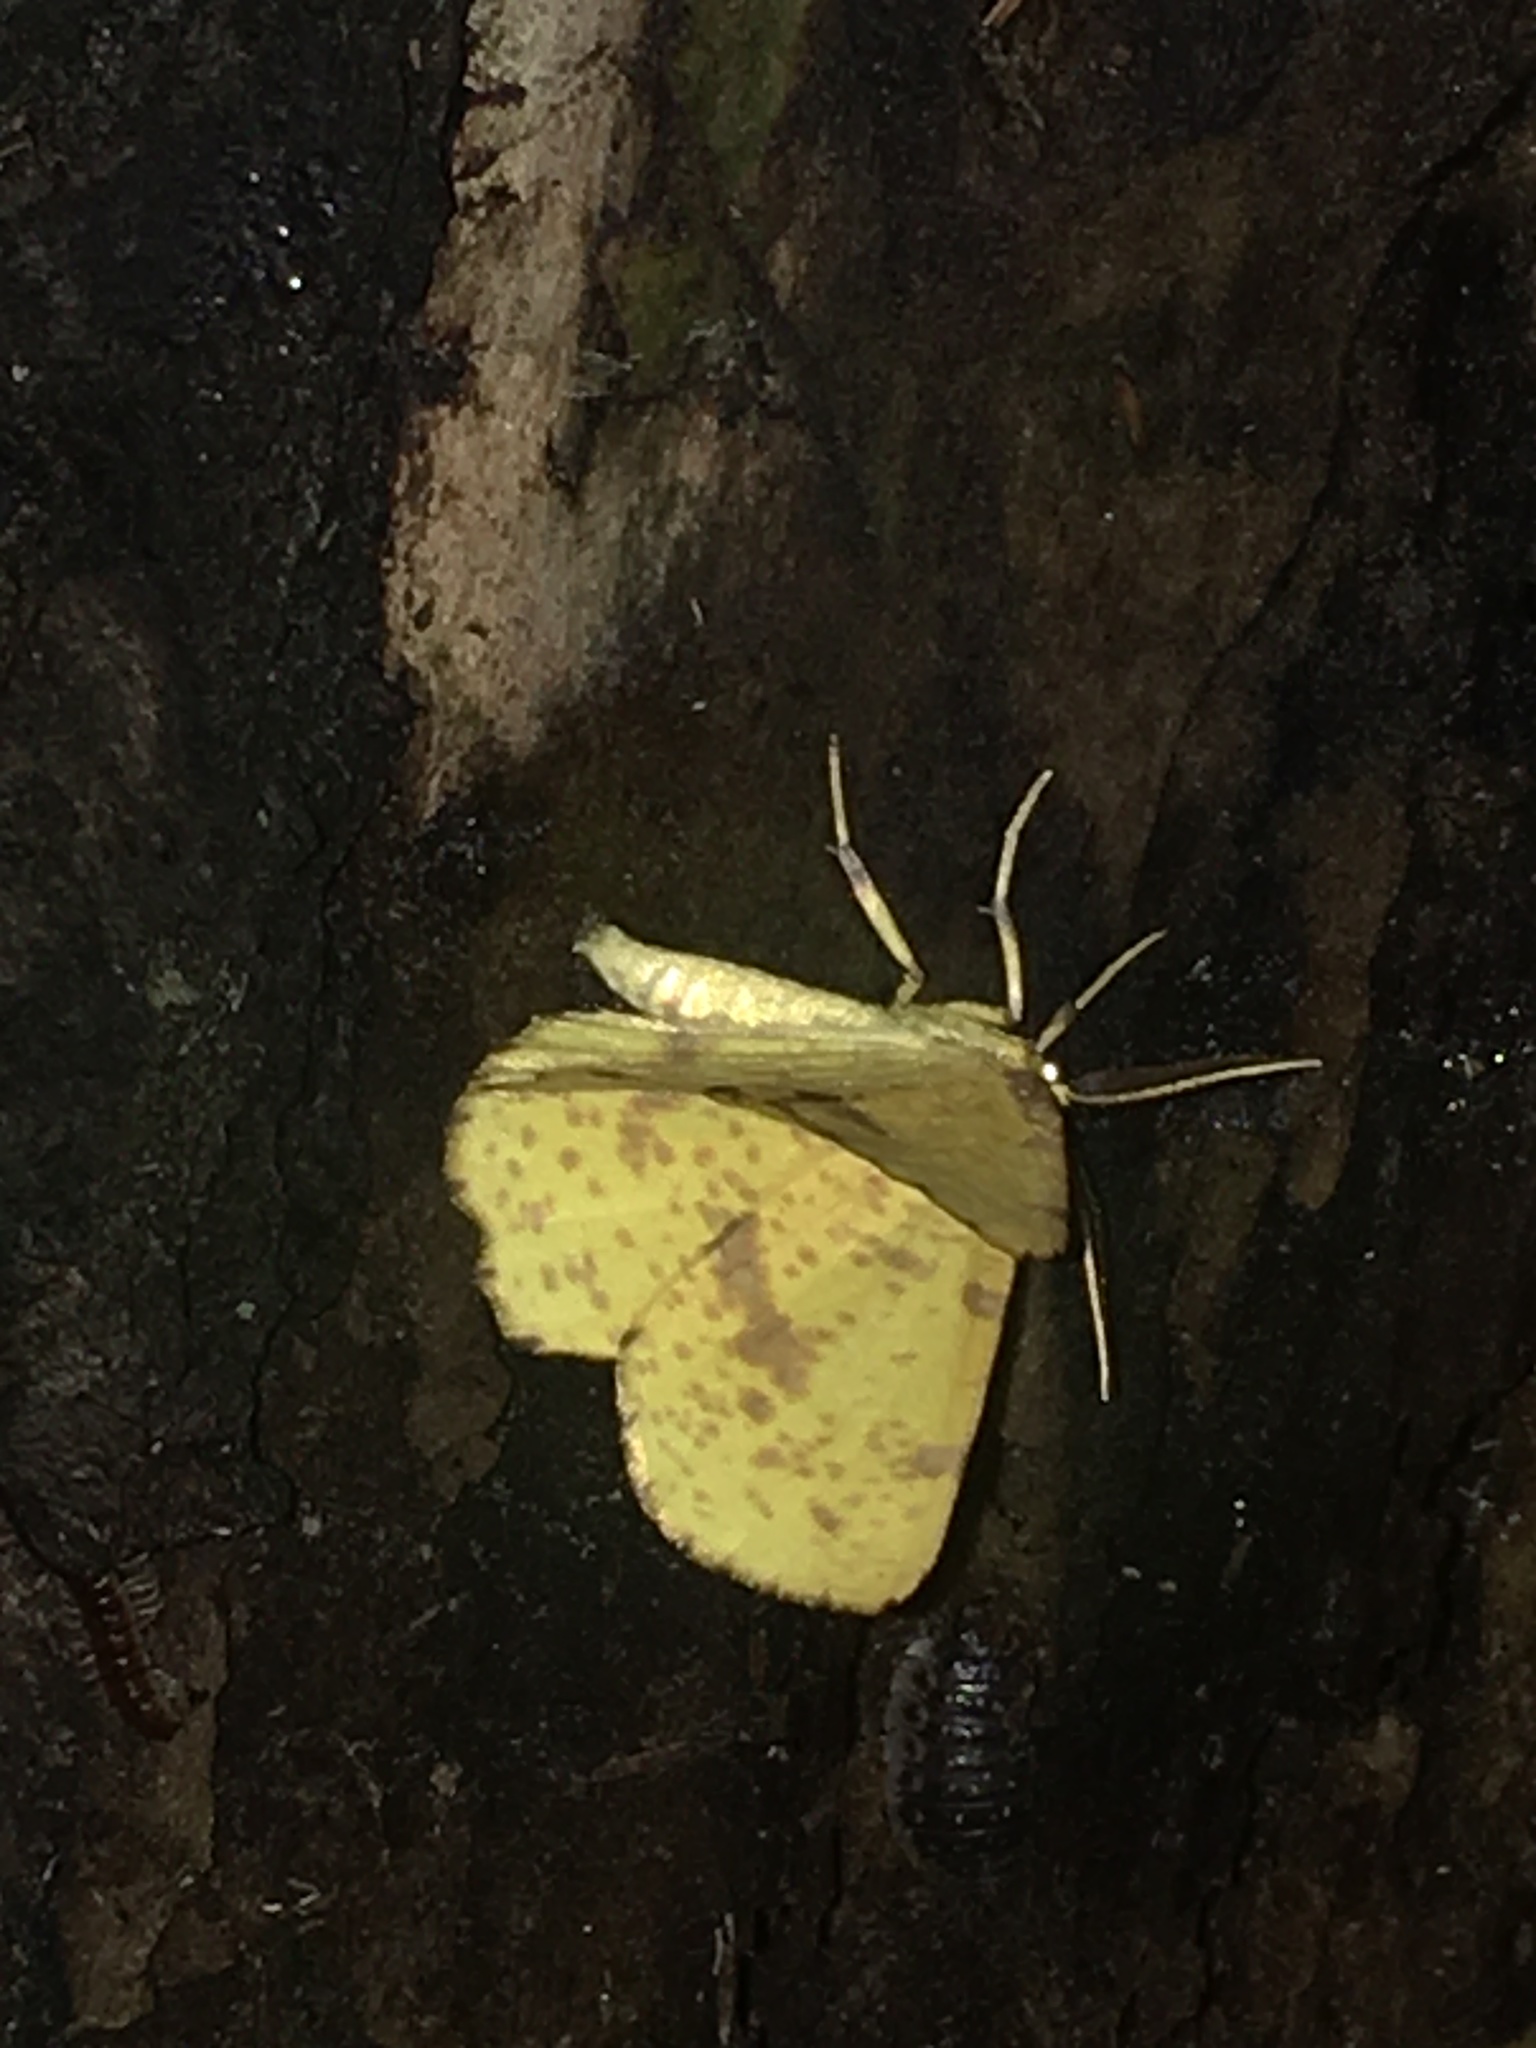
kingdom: Animalia
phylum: Arthropoda
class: Insecta
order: Lepidoptera
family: Geometridae
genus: Xanthotype
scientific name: Xanthotype
